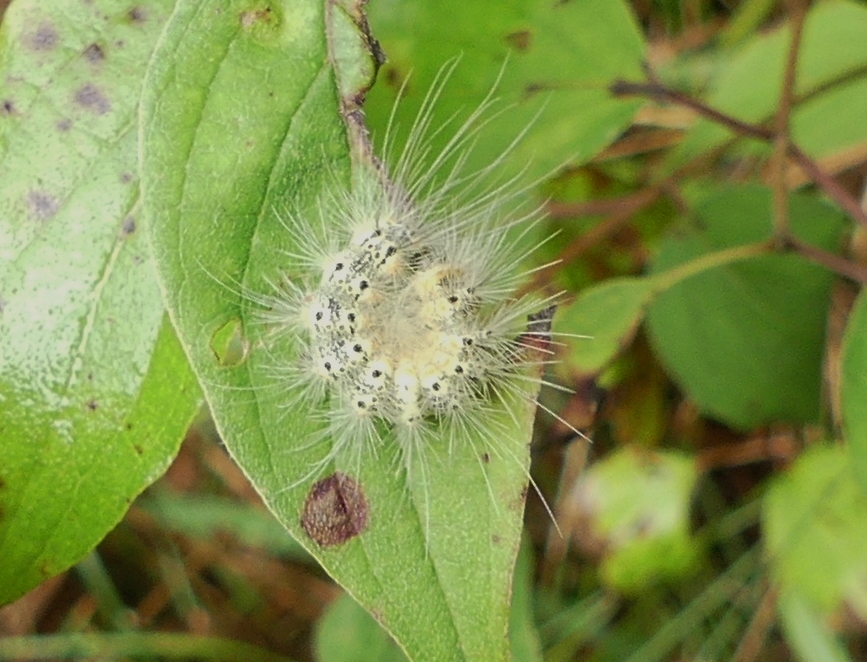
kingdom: Animalia
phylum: Arthropoda
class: Insecta
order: Lepidoptera
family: Erebidae
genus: Hyphantria
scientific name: Hyphantria cunea
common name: American white moth
